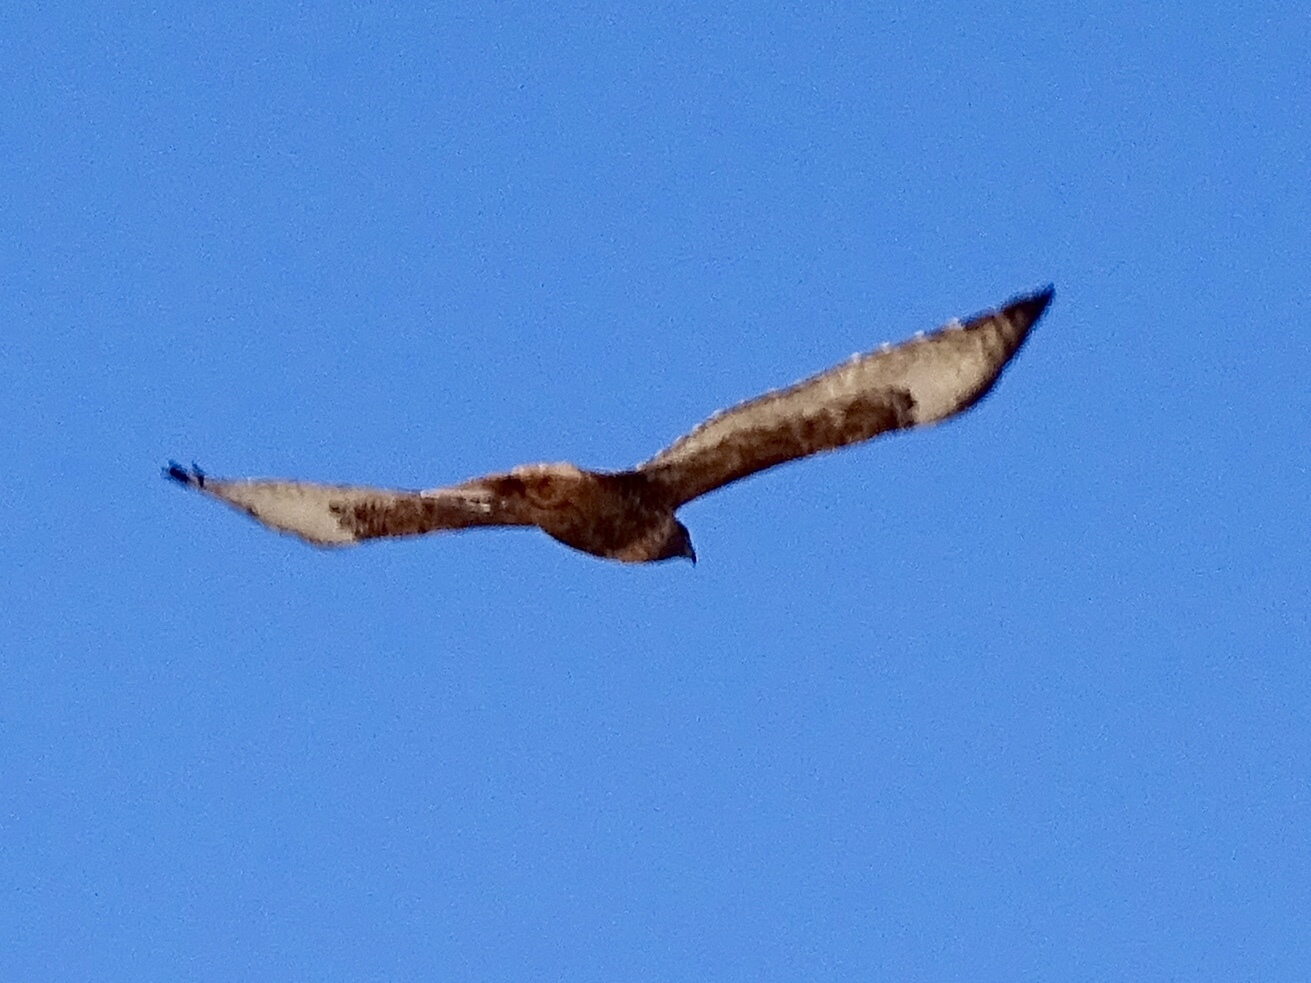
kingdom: Animalia
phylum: Chordata
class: Aves
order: Accipitriformes
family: Accipitridae
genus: Buteo
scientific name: Buteo jamaicensis
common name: Red-tailed hawk
